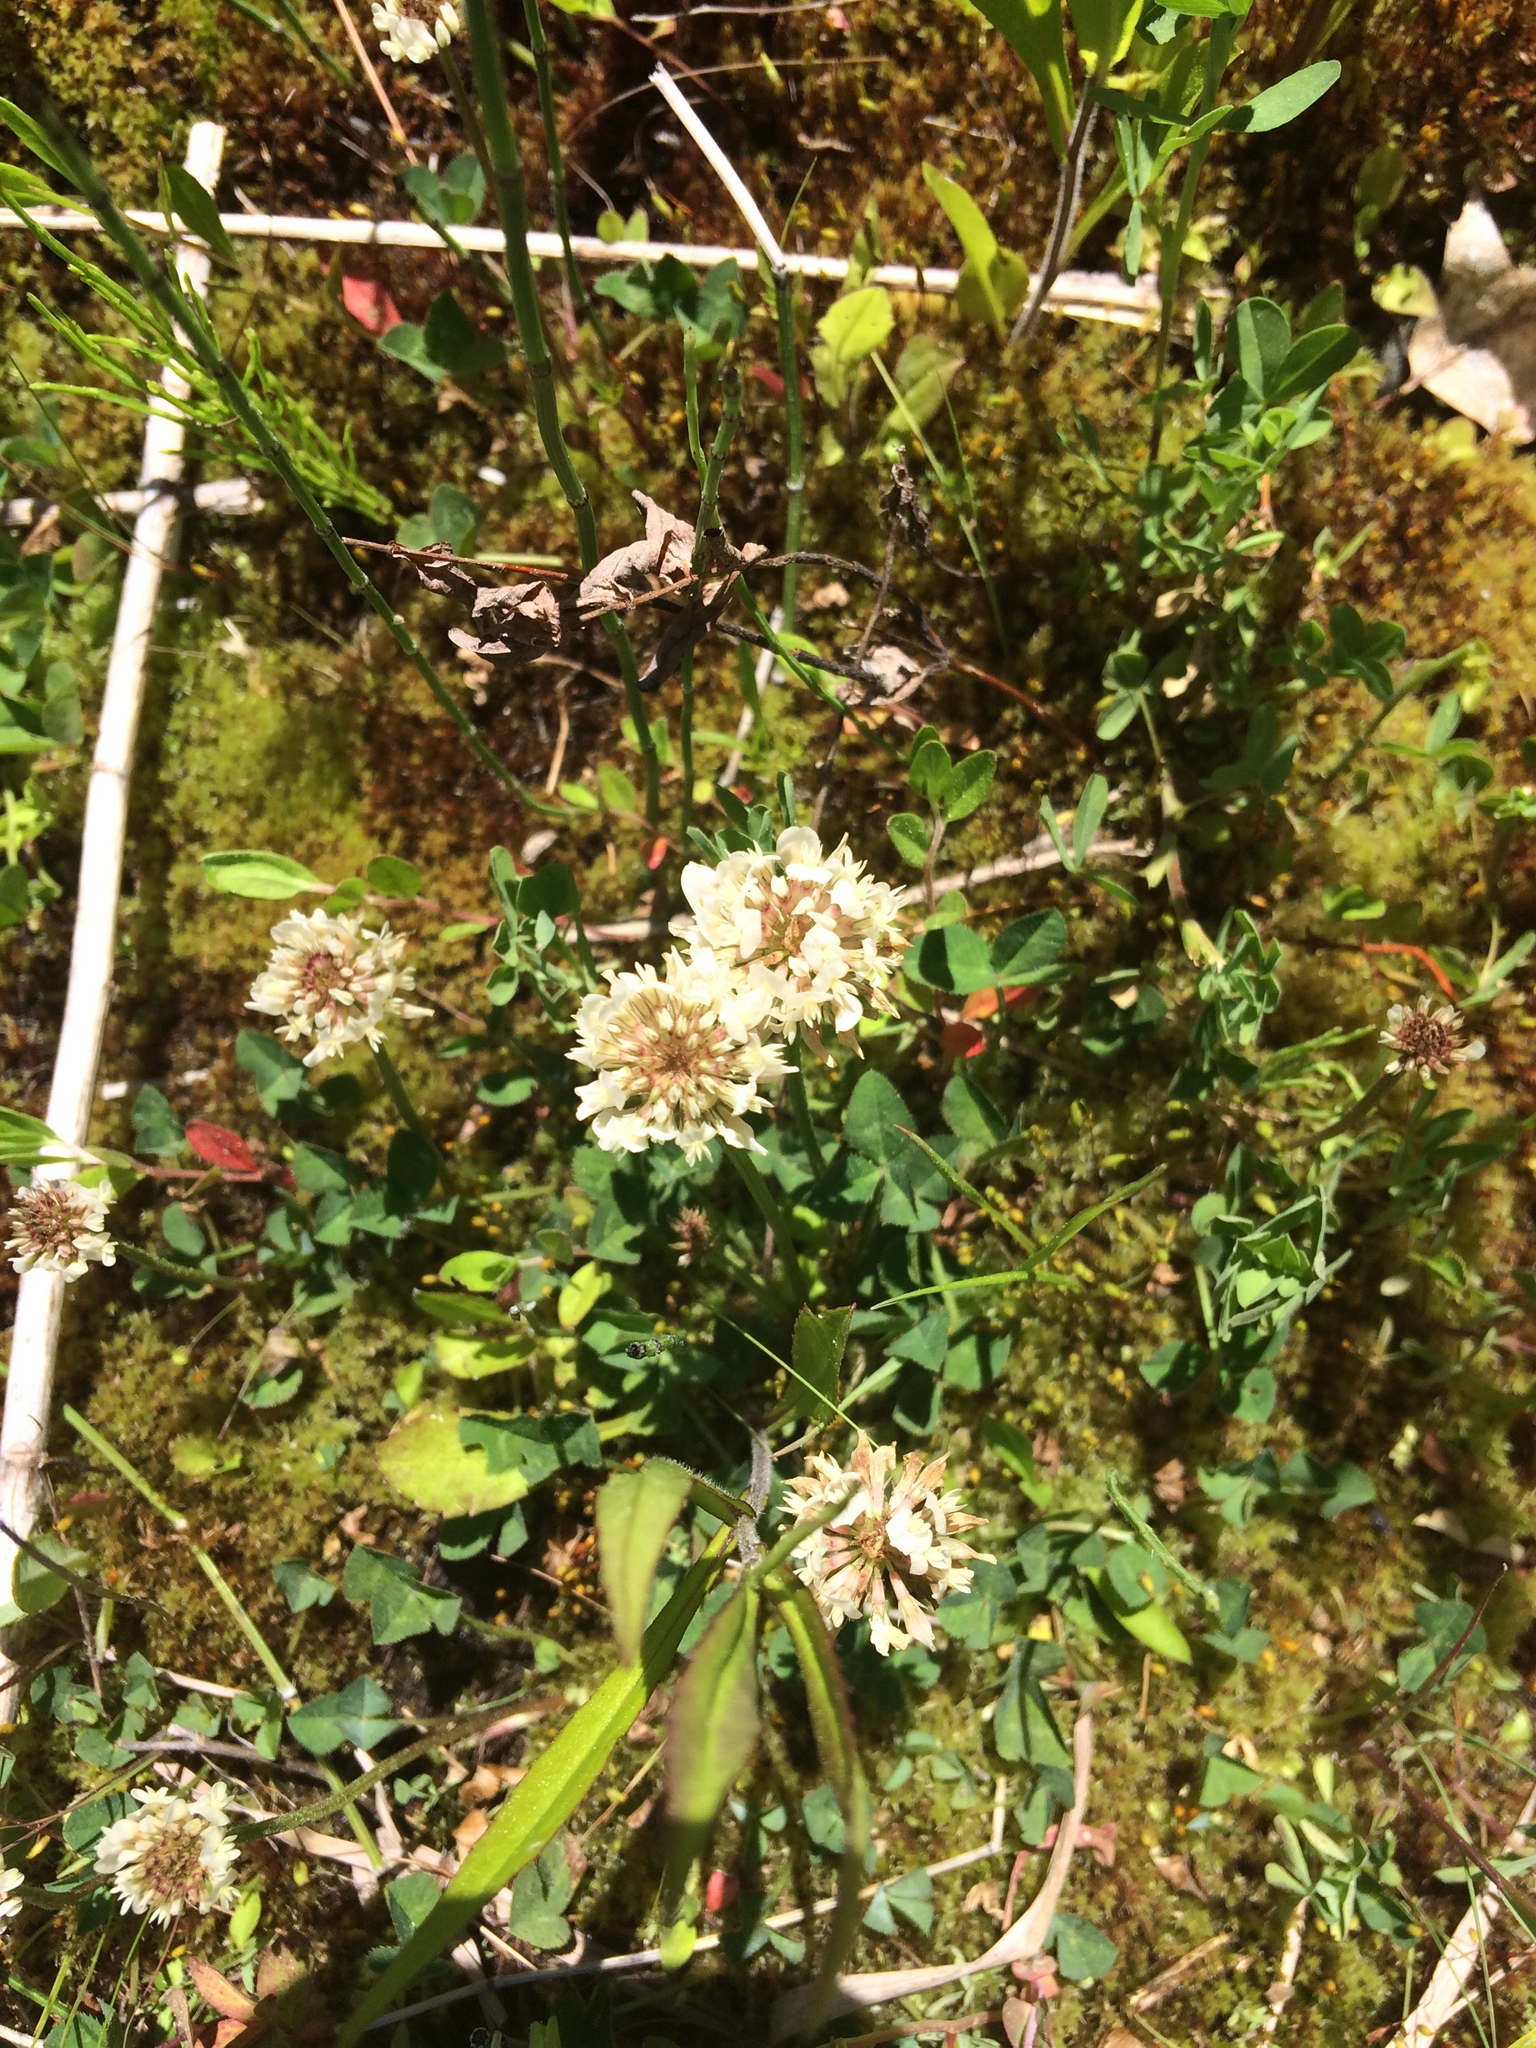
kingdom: Plantae
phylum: Tracheophyta
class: Magnoliopsida
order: Fabales
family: Fabaceae
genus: Trifolium
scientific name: Trifolium repens
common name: White clover
